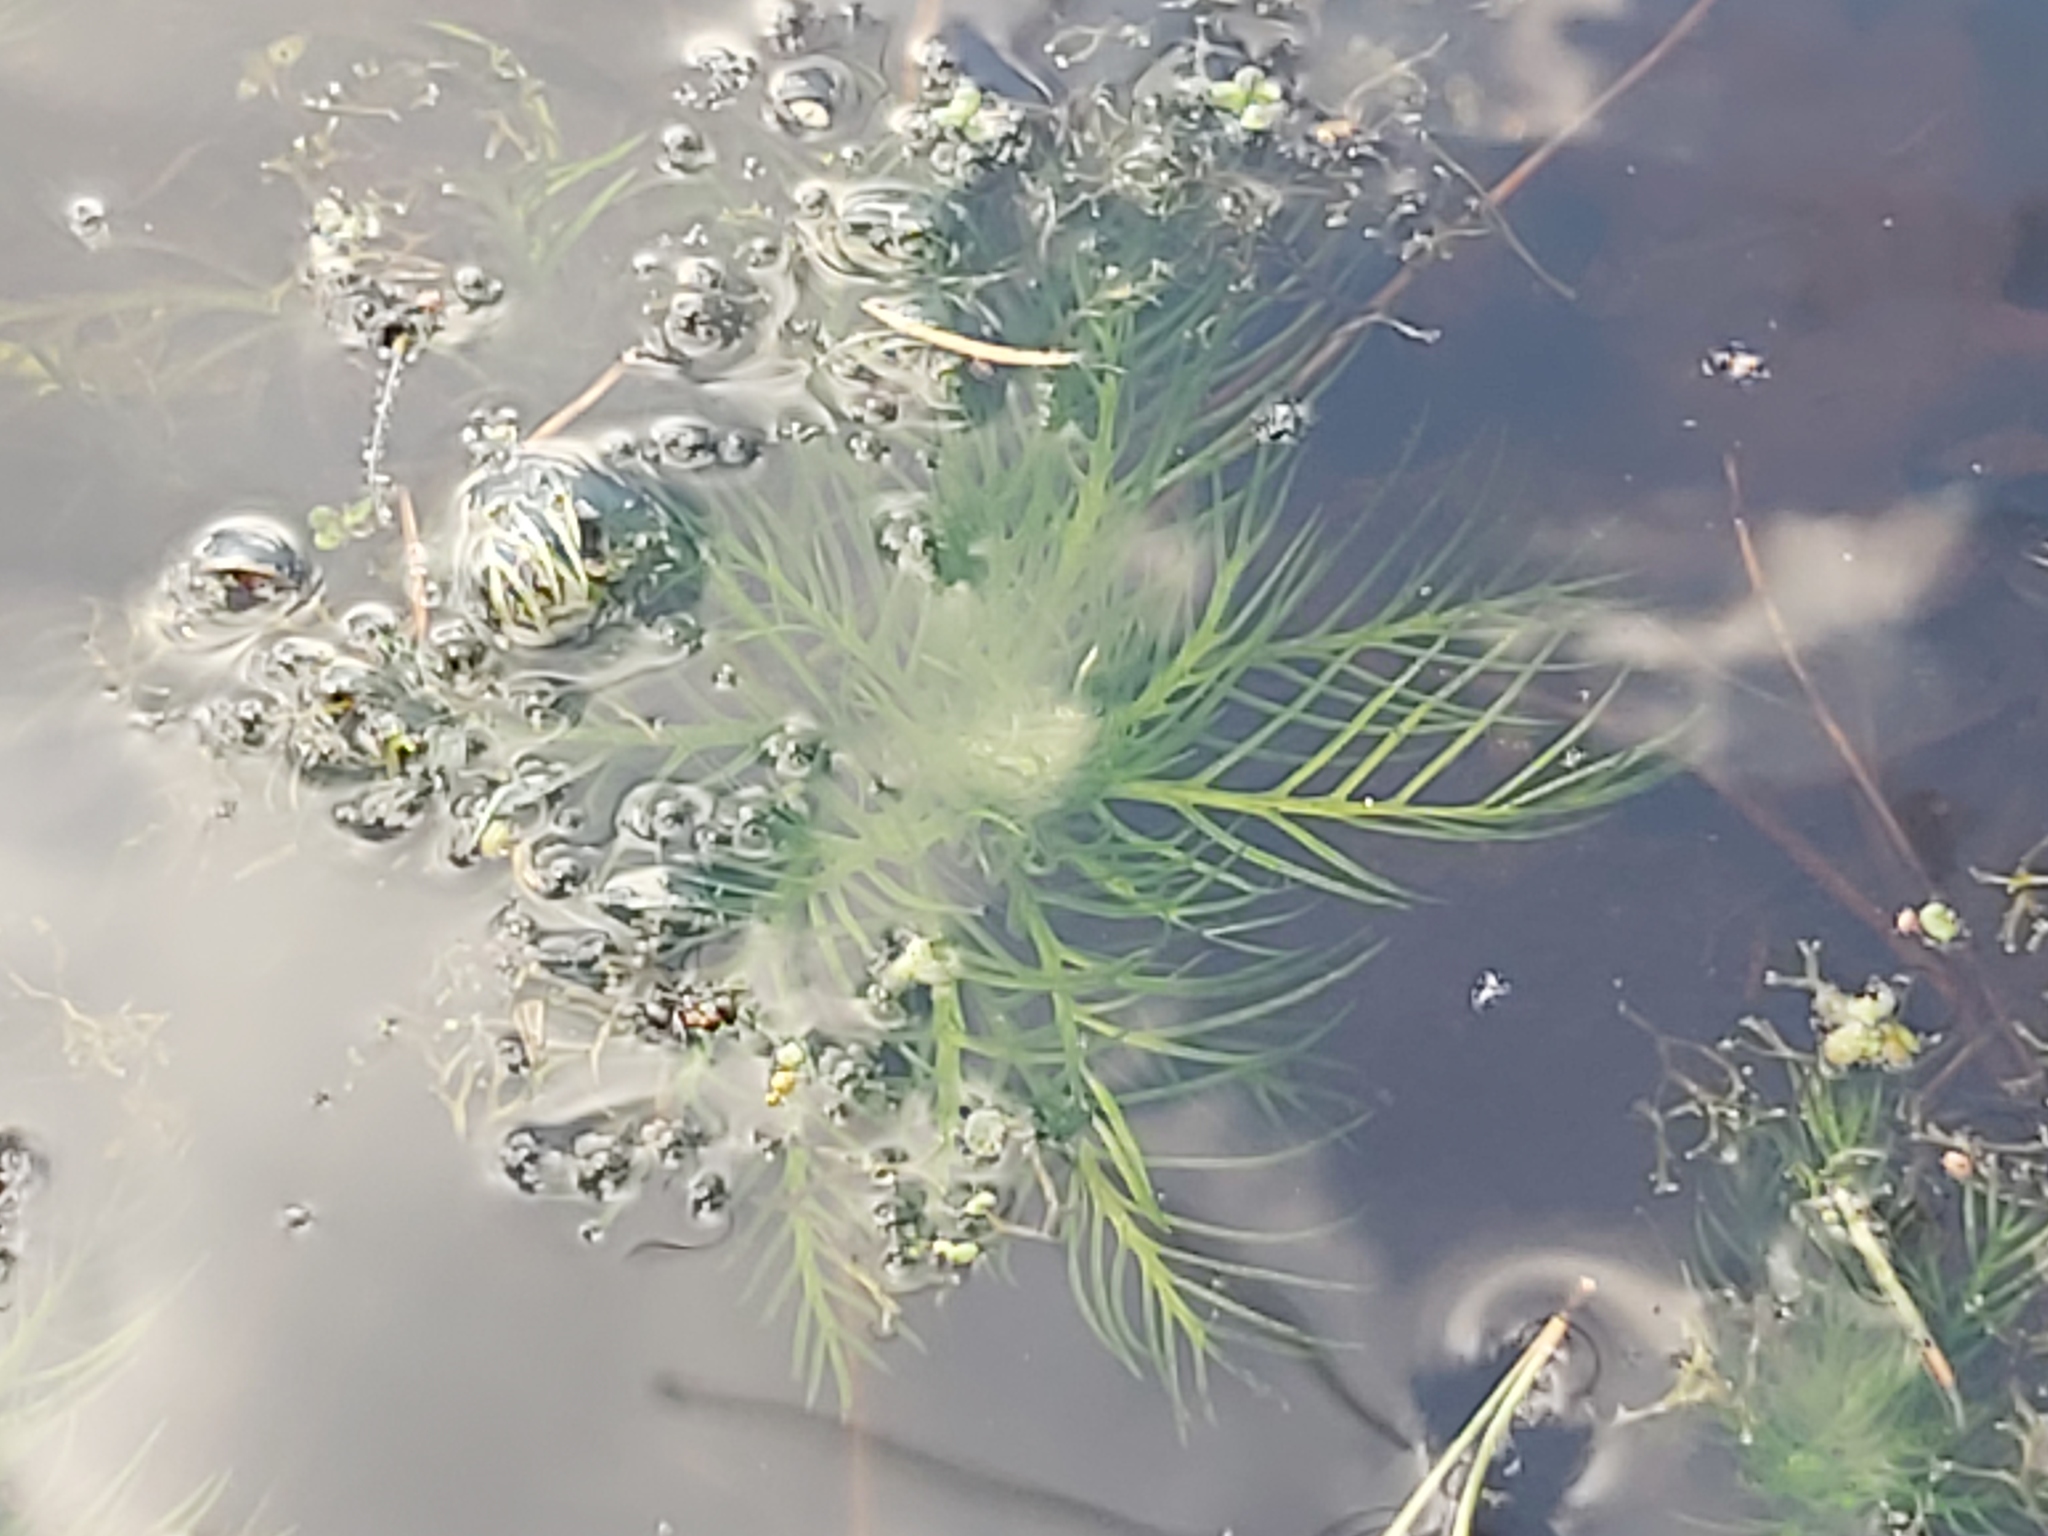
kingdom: Plantae
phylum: Tracheophyta
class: Magnoliopsida
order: Ericales
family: Primulaceae
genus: Hottonia
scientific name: Hottonia palustris
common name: Water-violet
